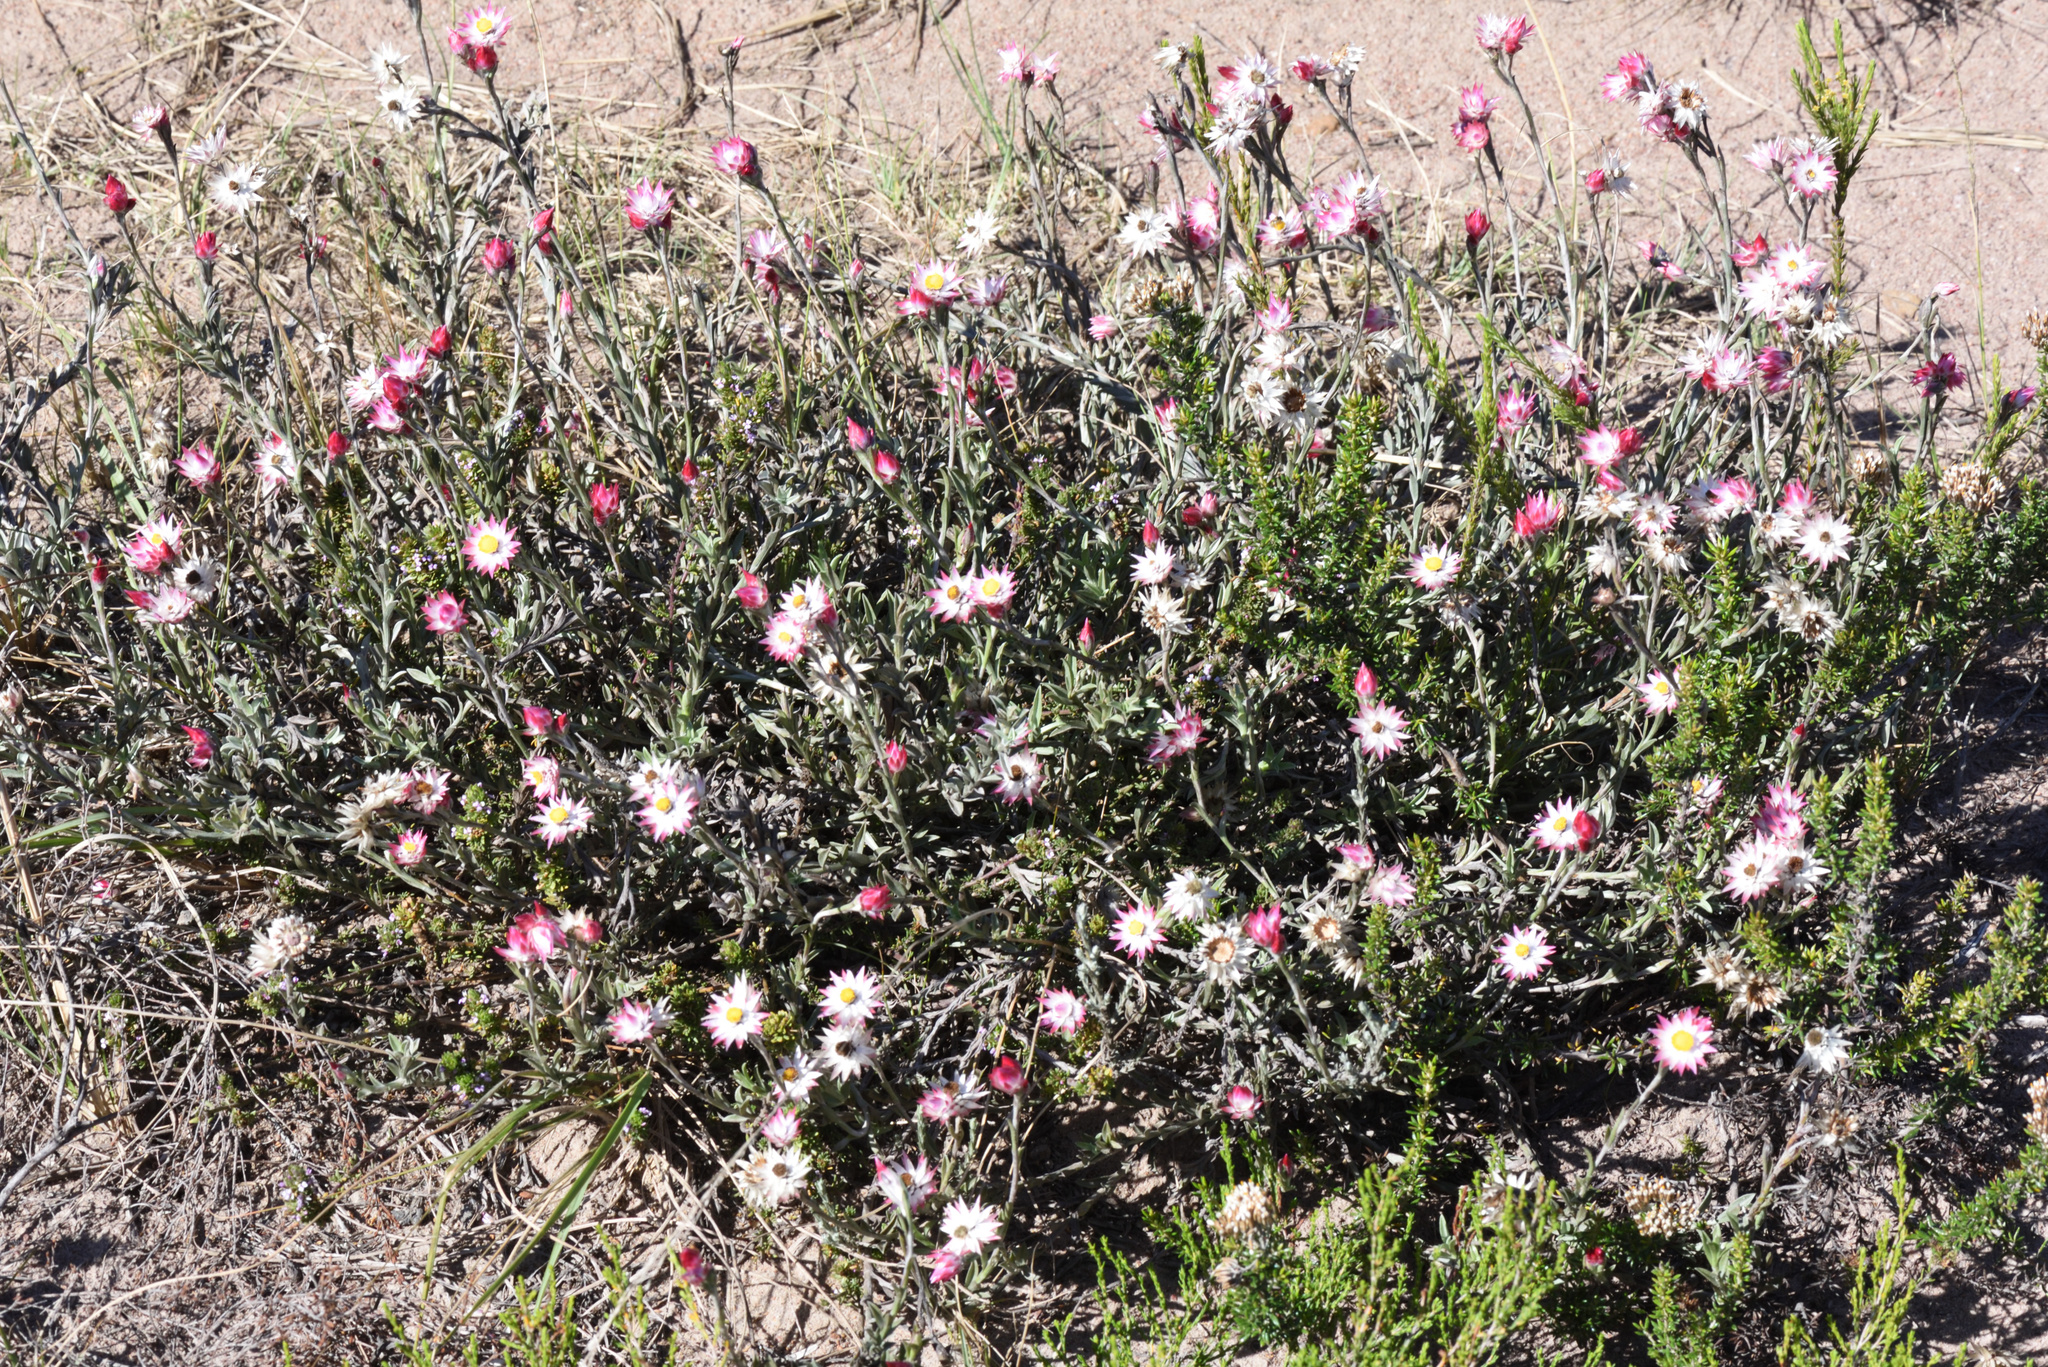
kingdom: Plantae
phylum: Tracheophyta
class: Magnoliopsida
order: Asterales
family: Asteraceae
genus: Achyranthemum
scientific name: Achyranthemum affine
